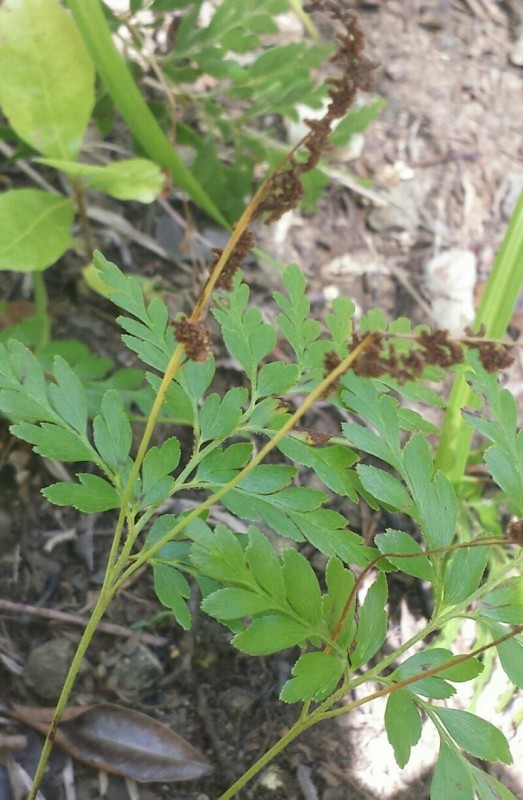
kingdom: Plantae
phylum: Tracheophyta
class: Polypodiopsida
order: Schizaeales
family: Anemiaceae
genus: Anemia
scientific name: Anemia adiantifolia
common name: Pine fern
